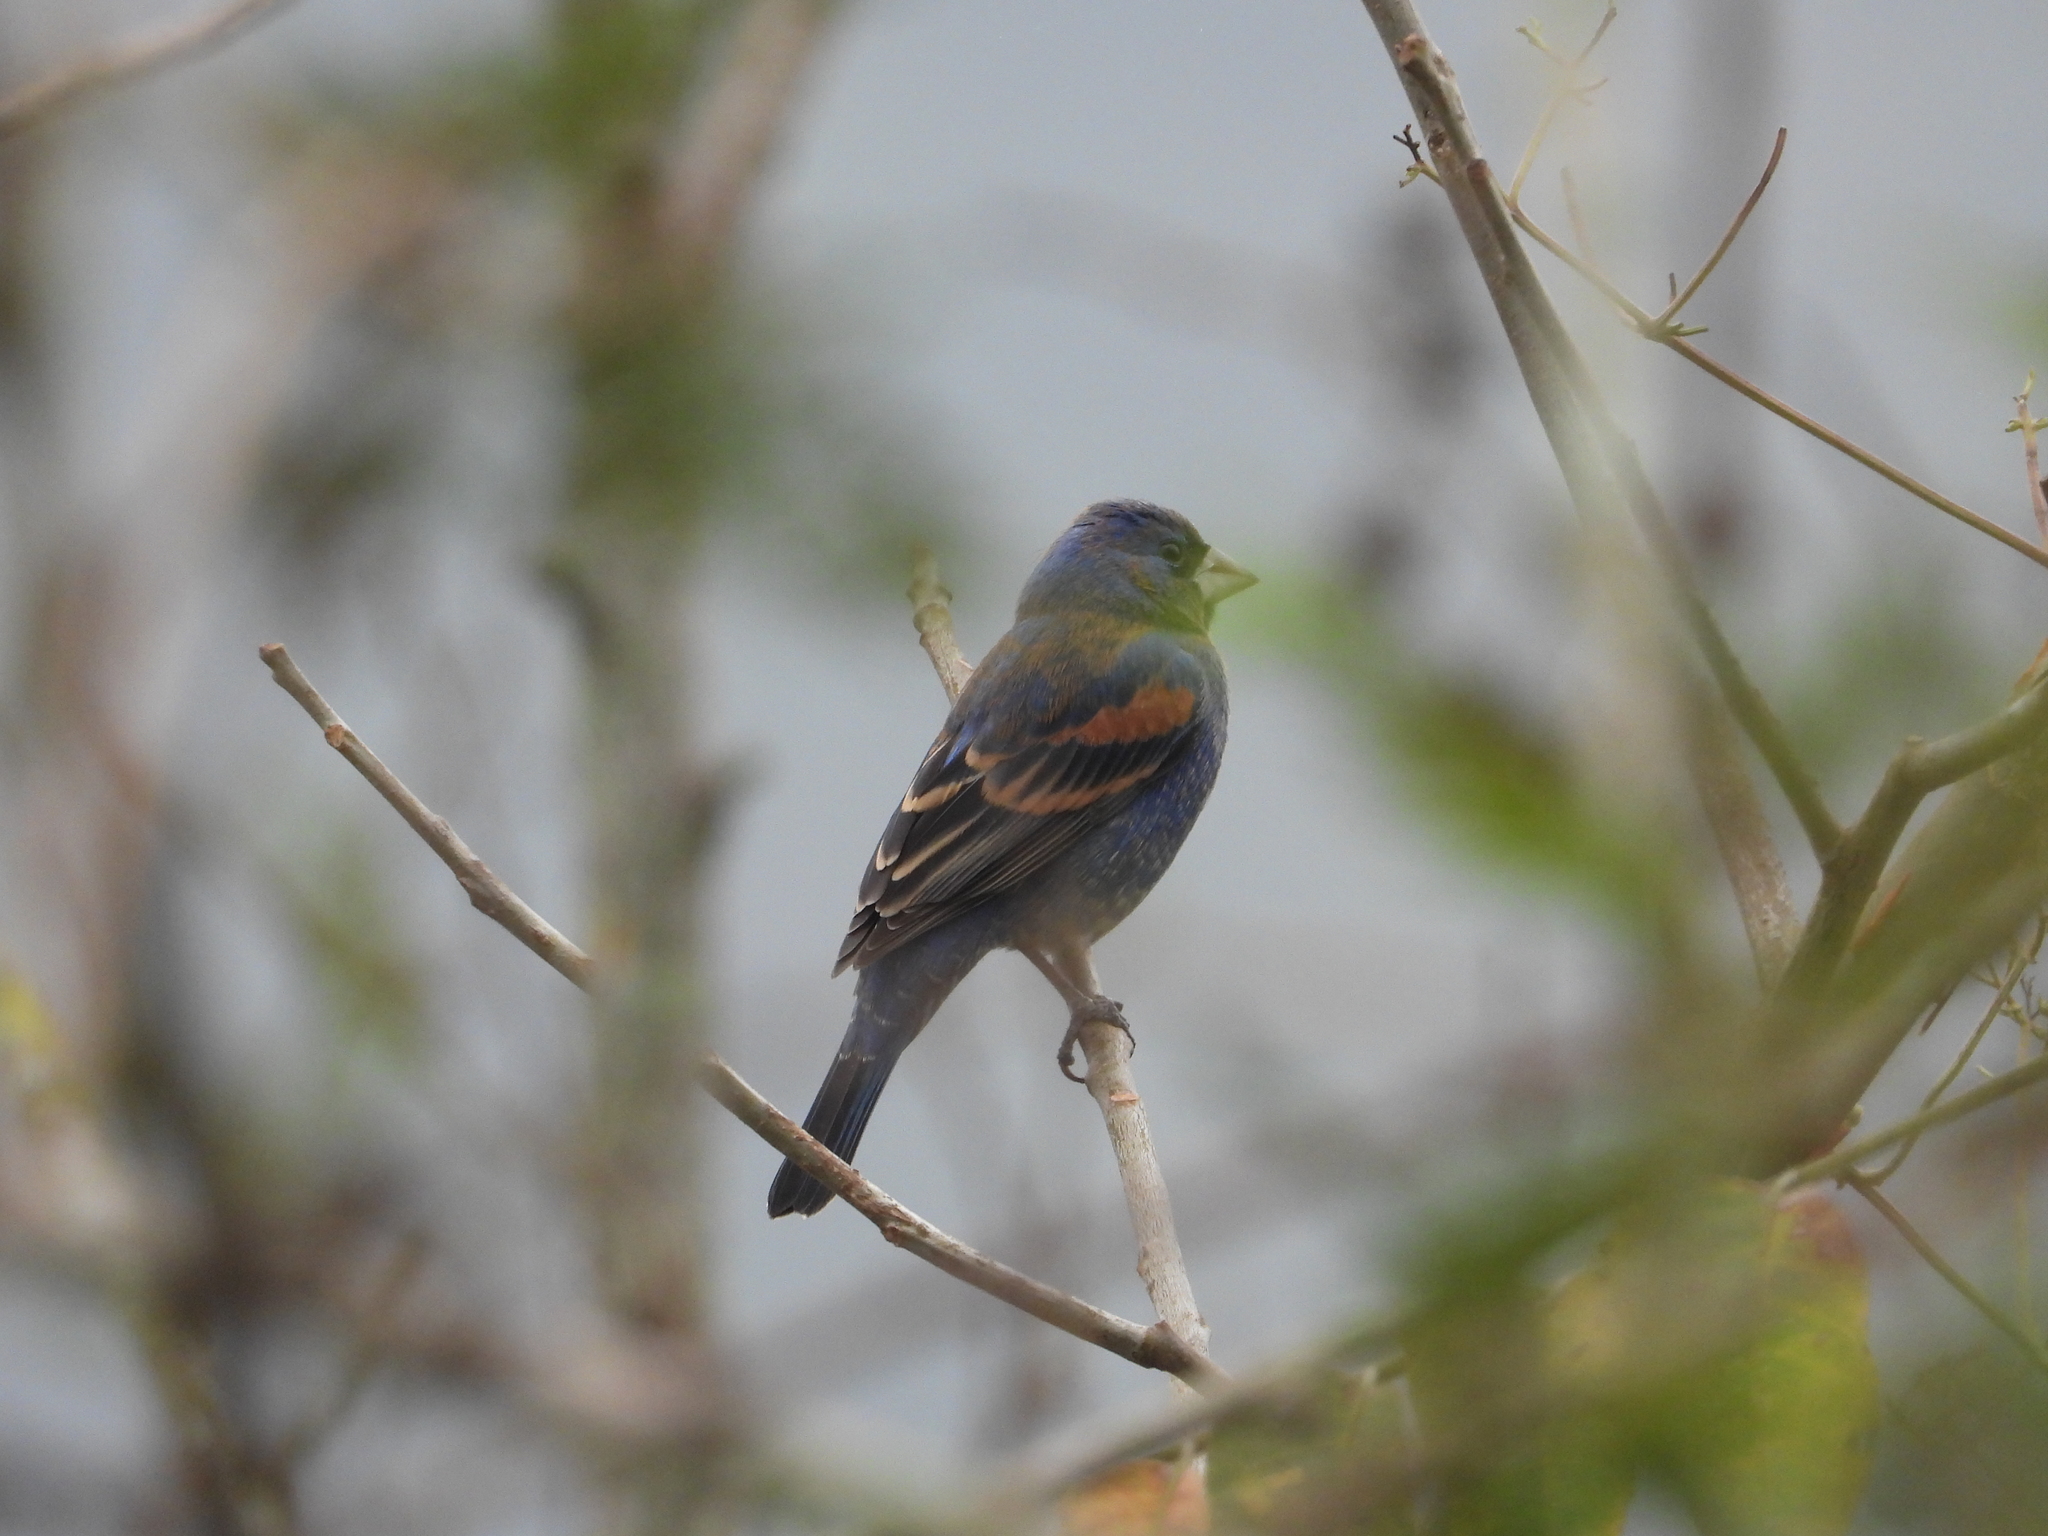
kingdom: Animalia
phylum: Chordata
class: Aves
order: Passeriformes
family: Cardinalidae
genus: Passerina
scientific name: Passerina caerulea
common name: Blue grosbeak
